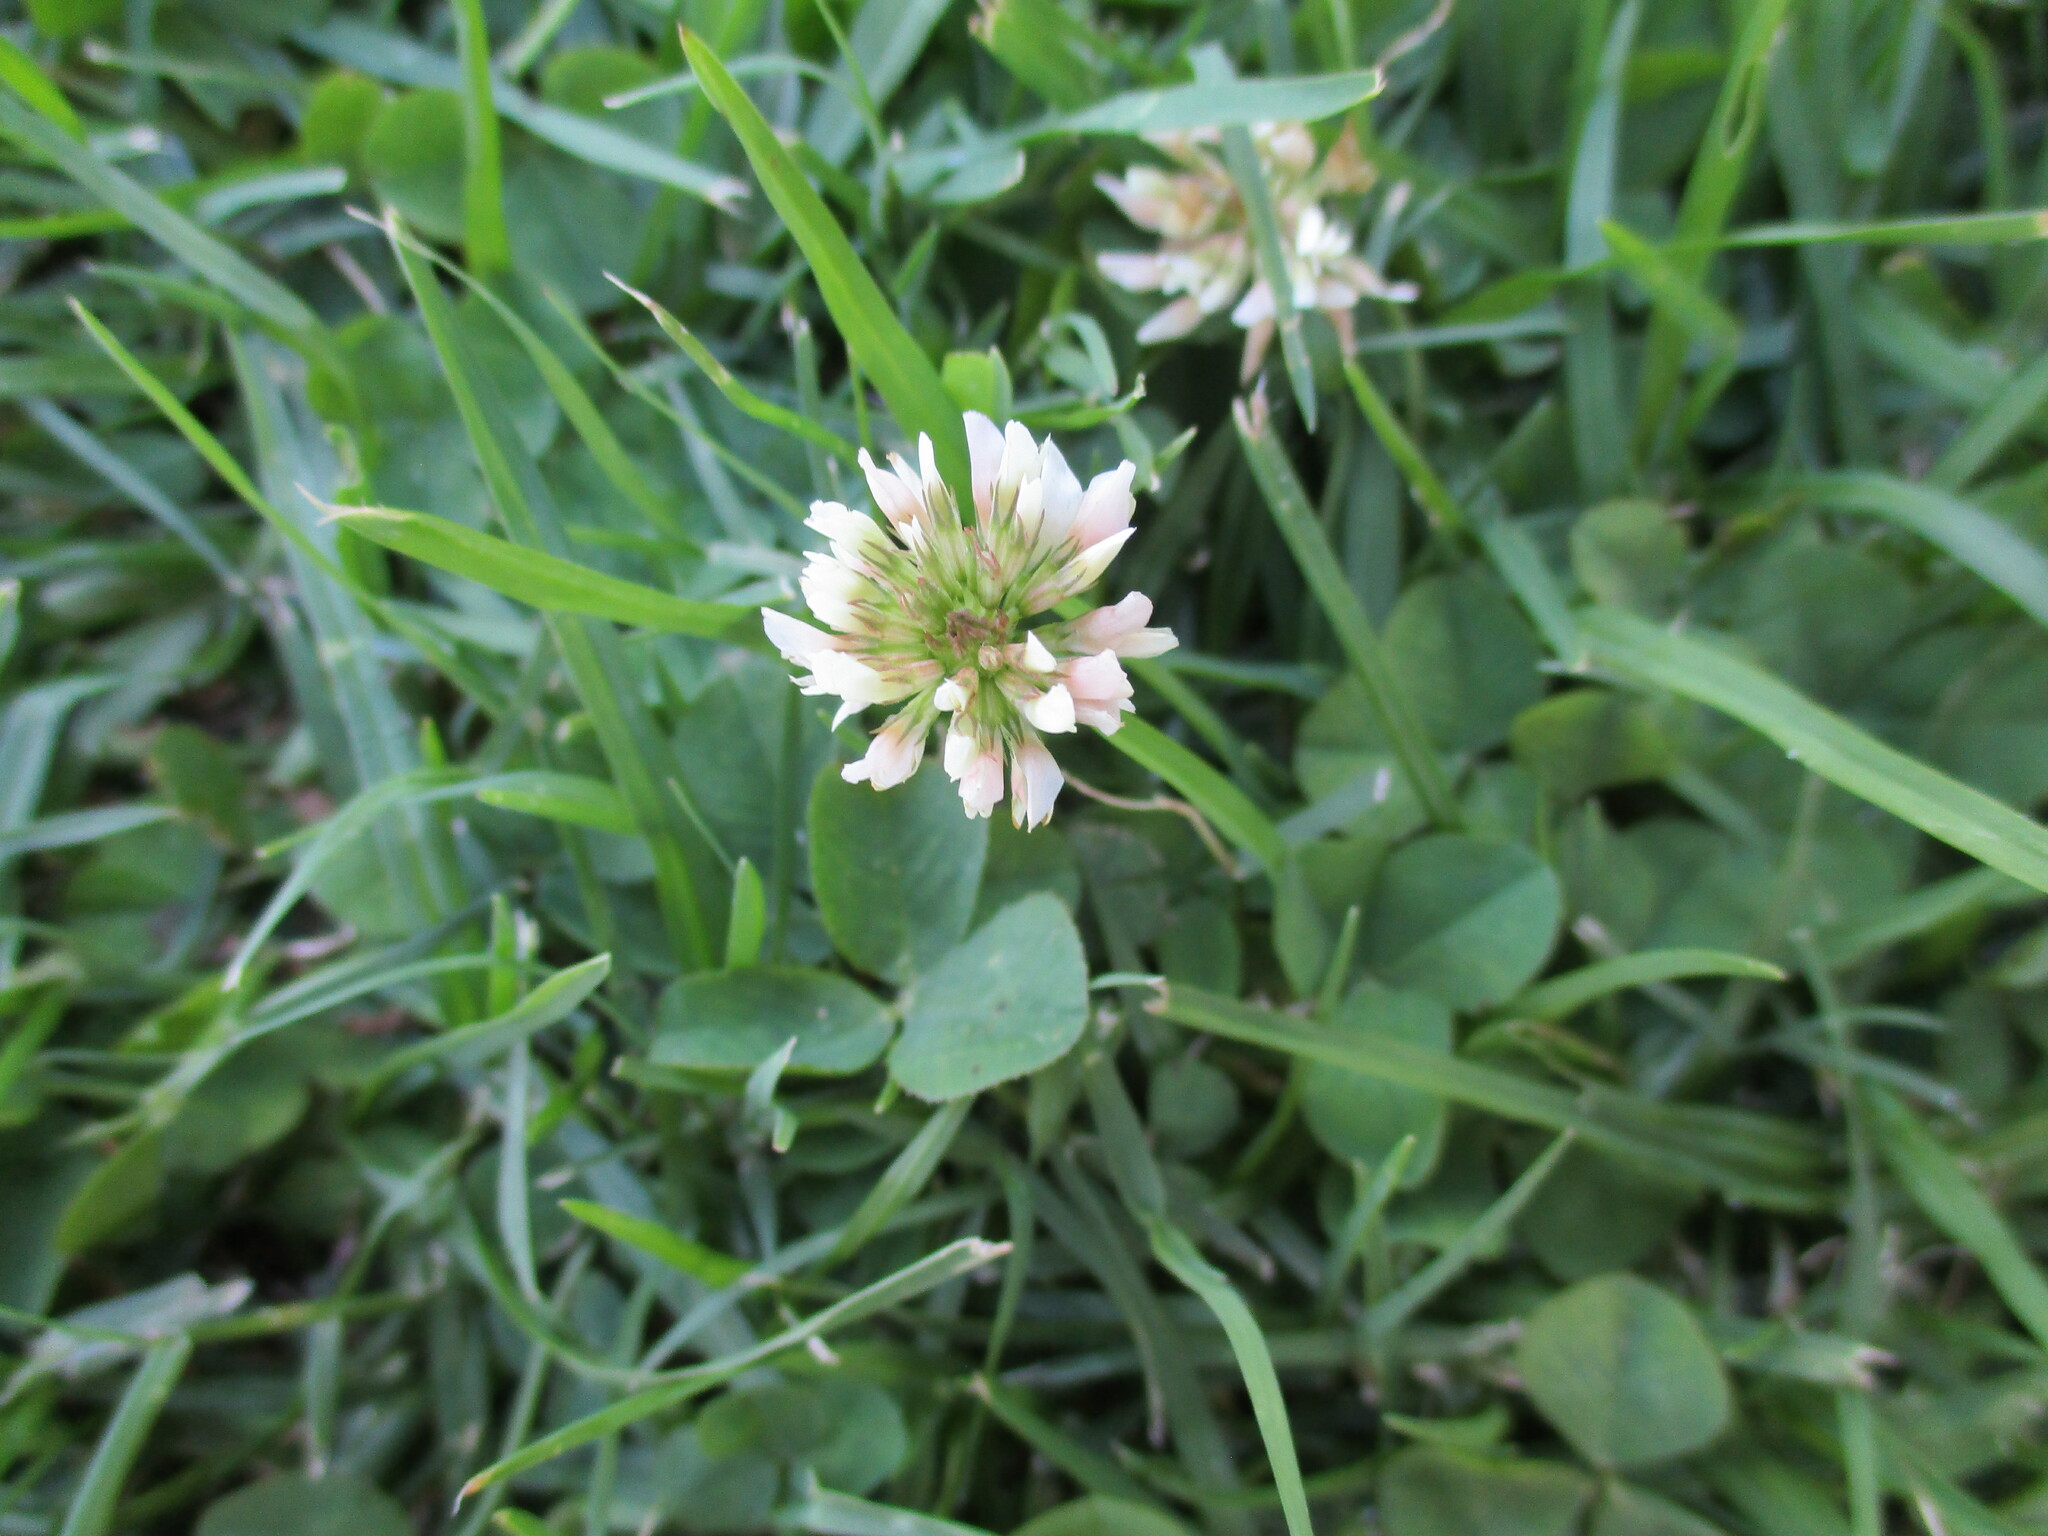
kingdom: Plantae
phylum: Tracheophyta
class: Magnoliopsida
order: Fabales
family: Fabaceae
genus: Trifolium
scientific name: Trifolium repens
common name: White clover
